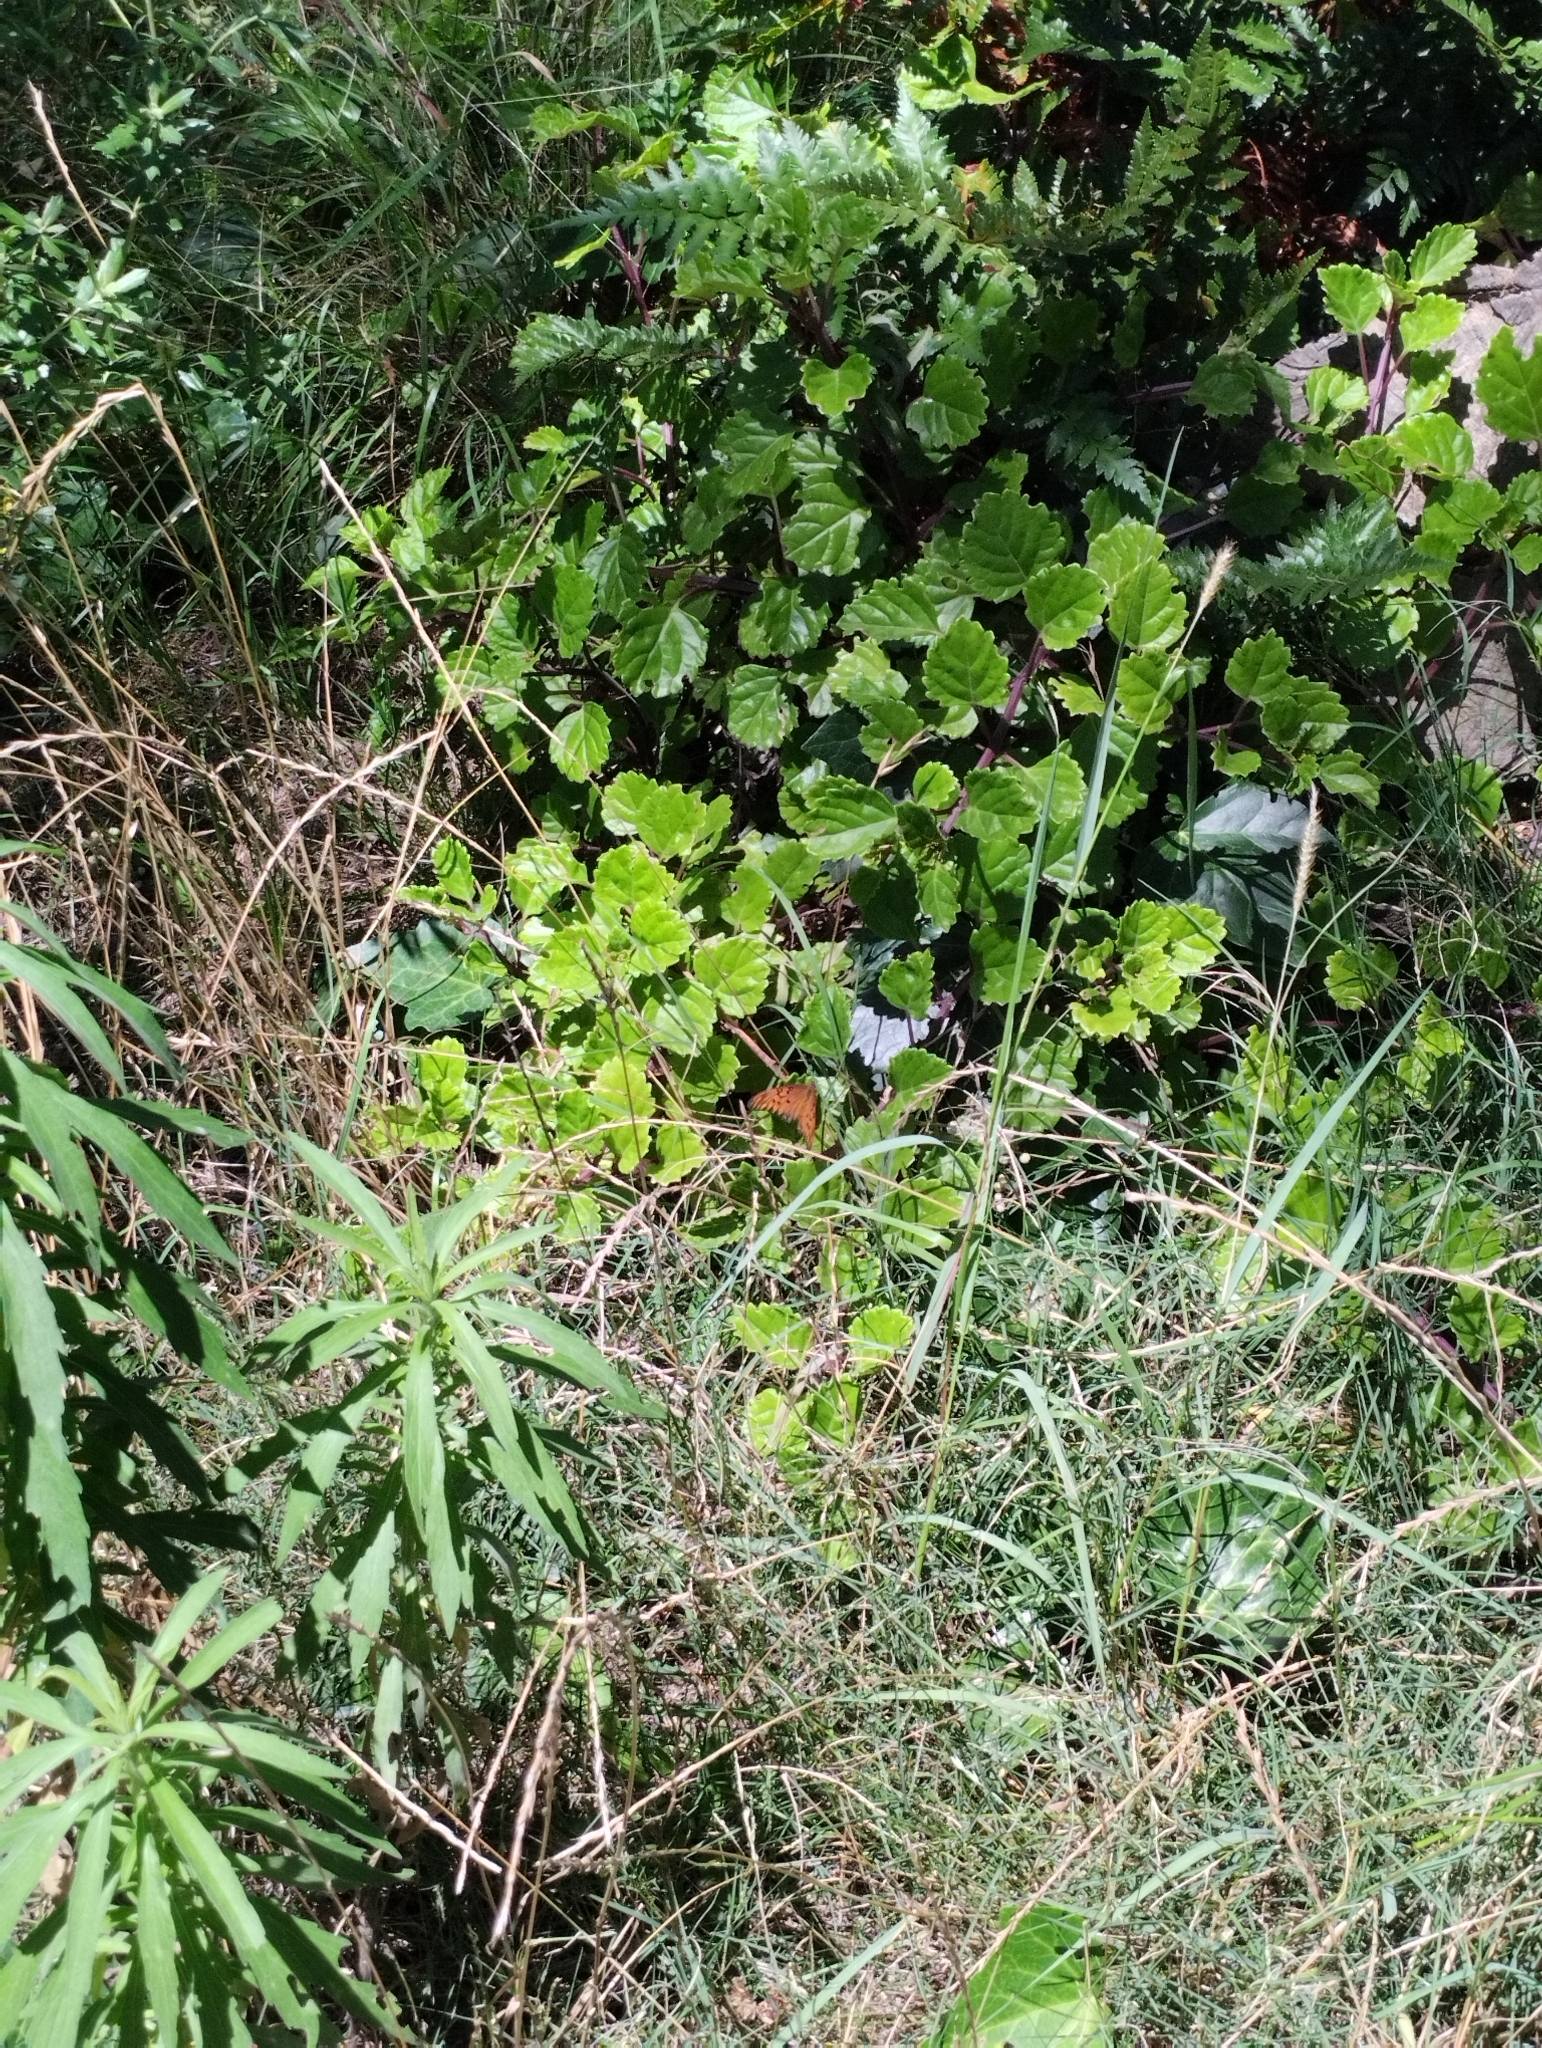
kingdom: Animalia
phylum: Arthropoda
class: Insecta
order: Lepidoptera
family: Nymphalidae
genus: Dione
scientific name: Dione vanillae
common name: Gulf fritillary
